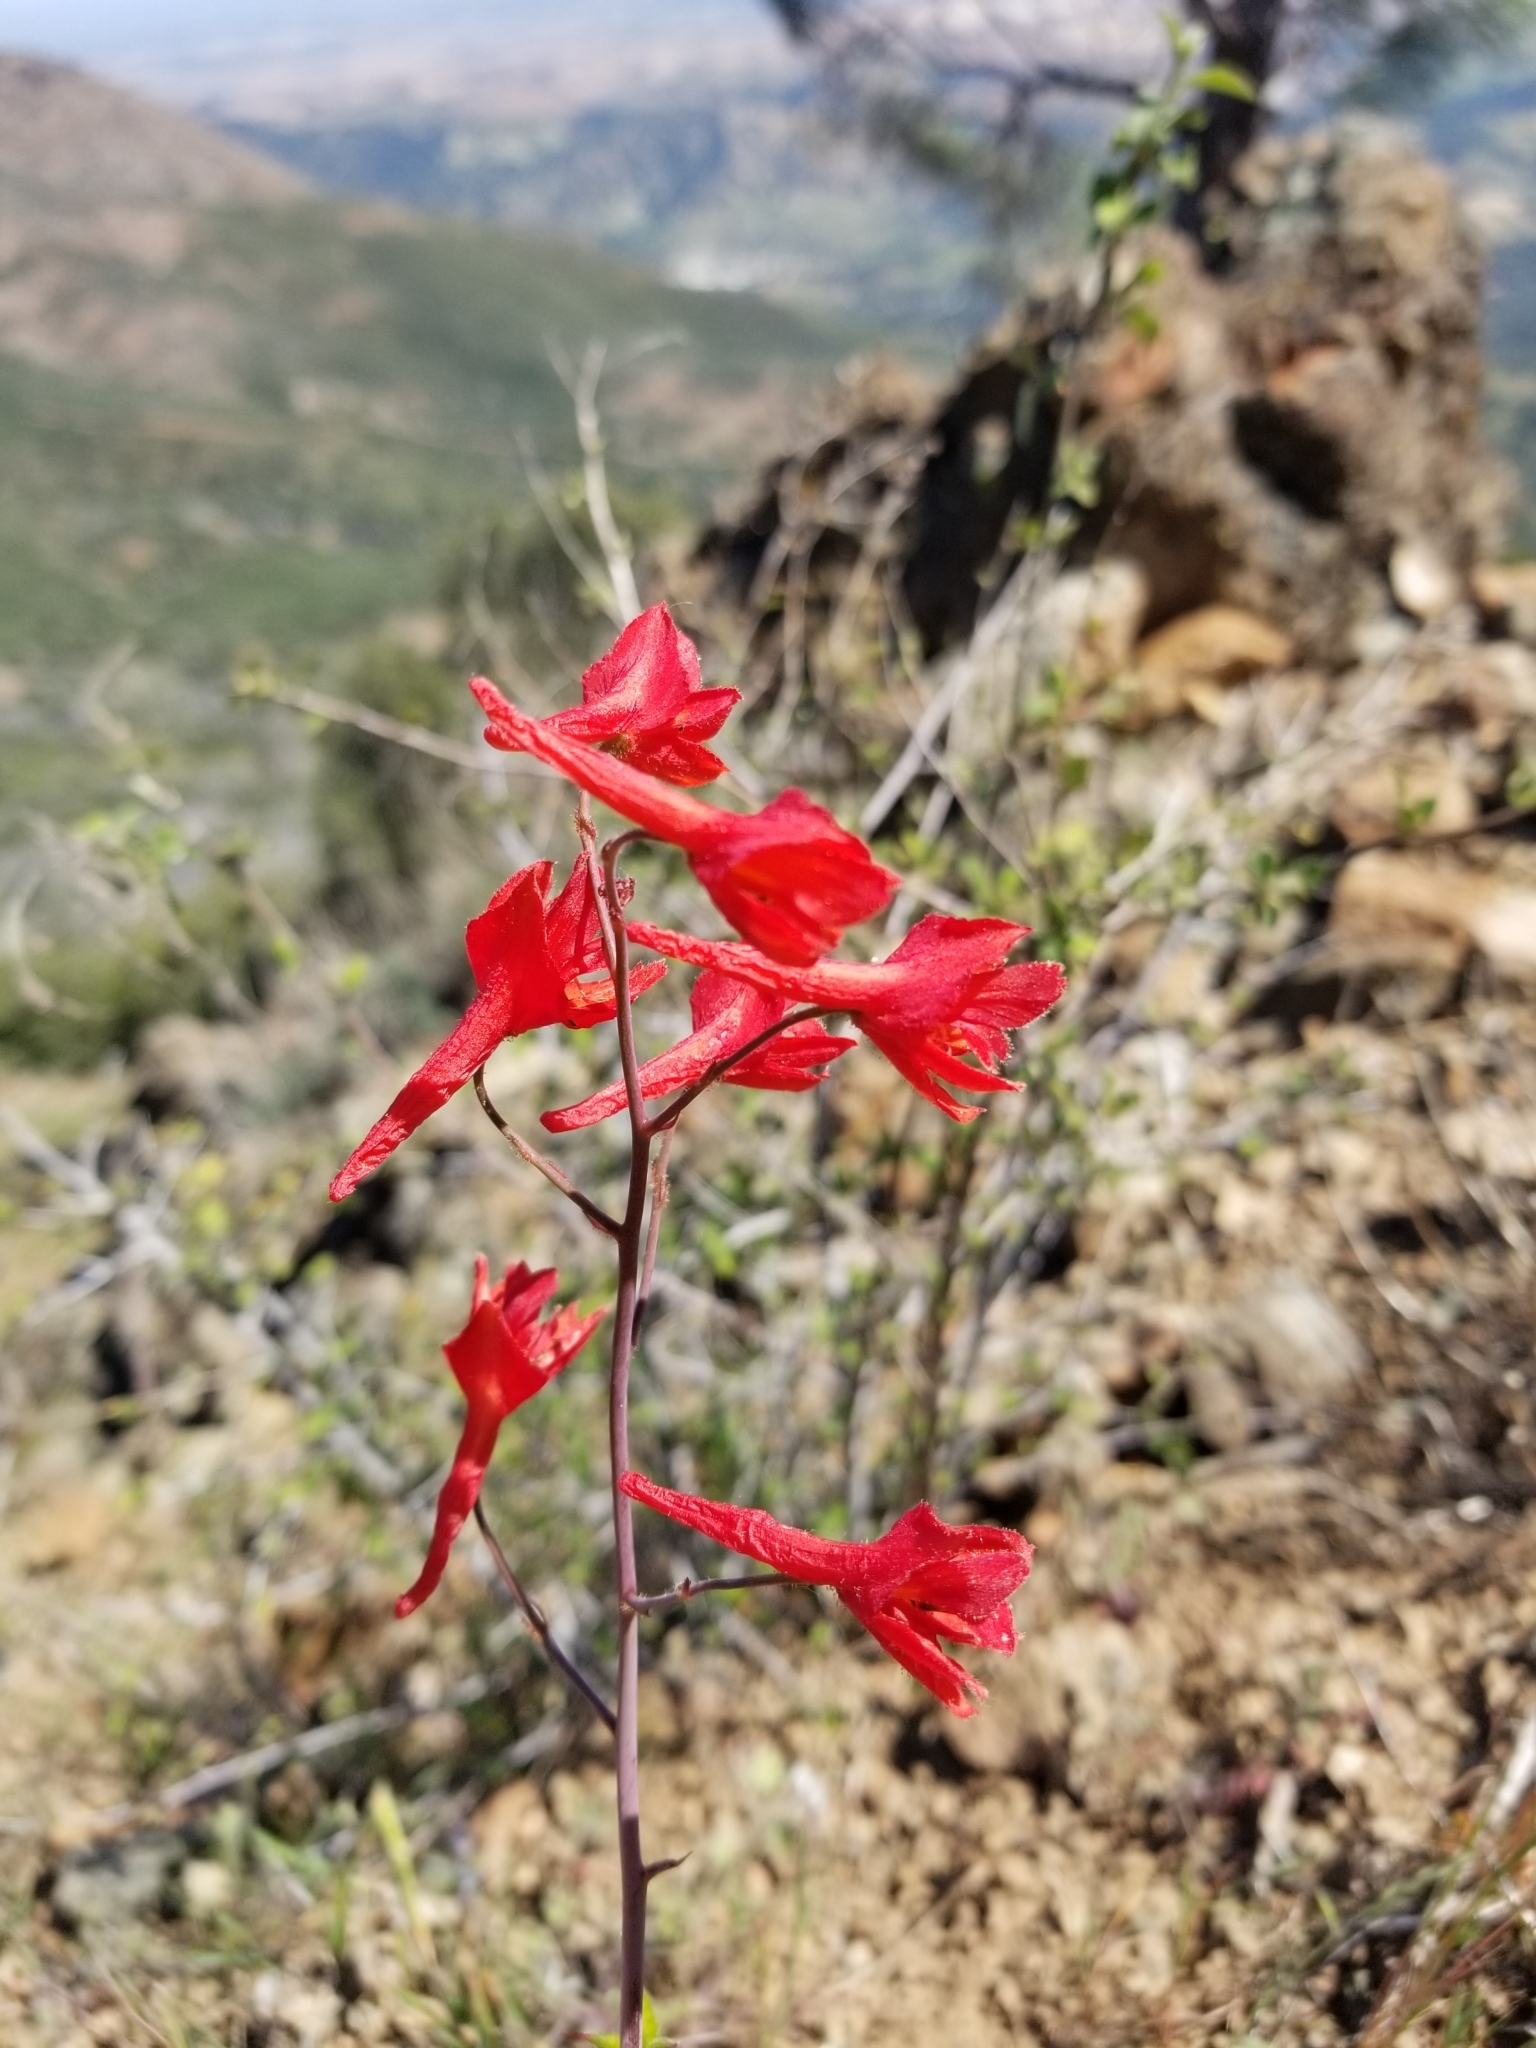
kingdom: Plantae
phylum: Tracheophyta
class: Magnoliopsida
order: Ranunculales
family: Ranunculaceae
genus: Delphinium
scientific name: Delphinium nudicaule
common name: Red larkspur
